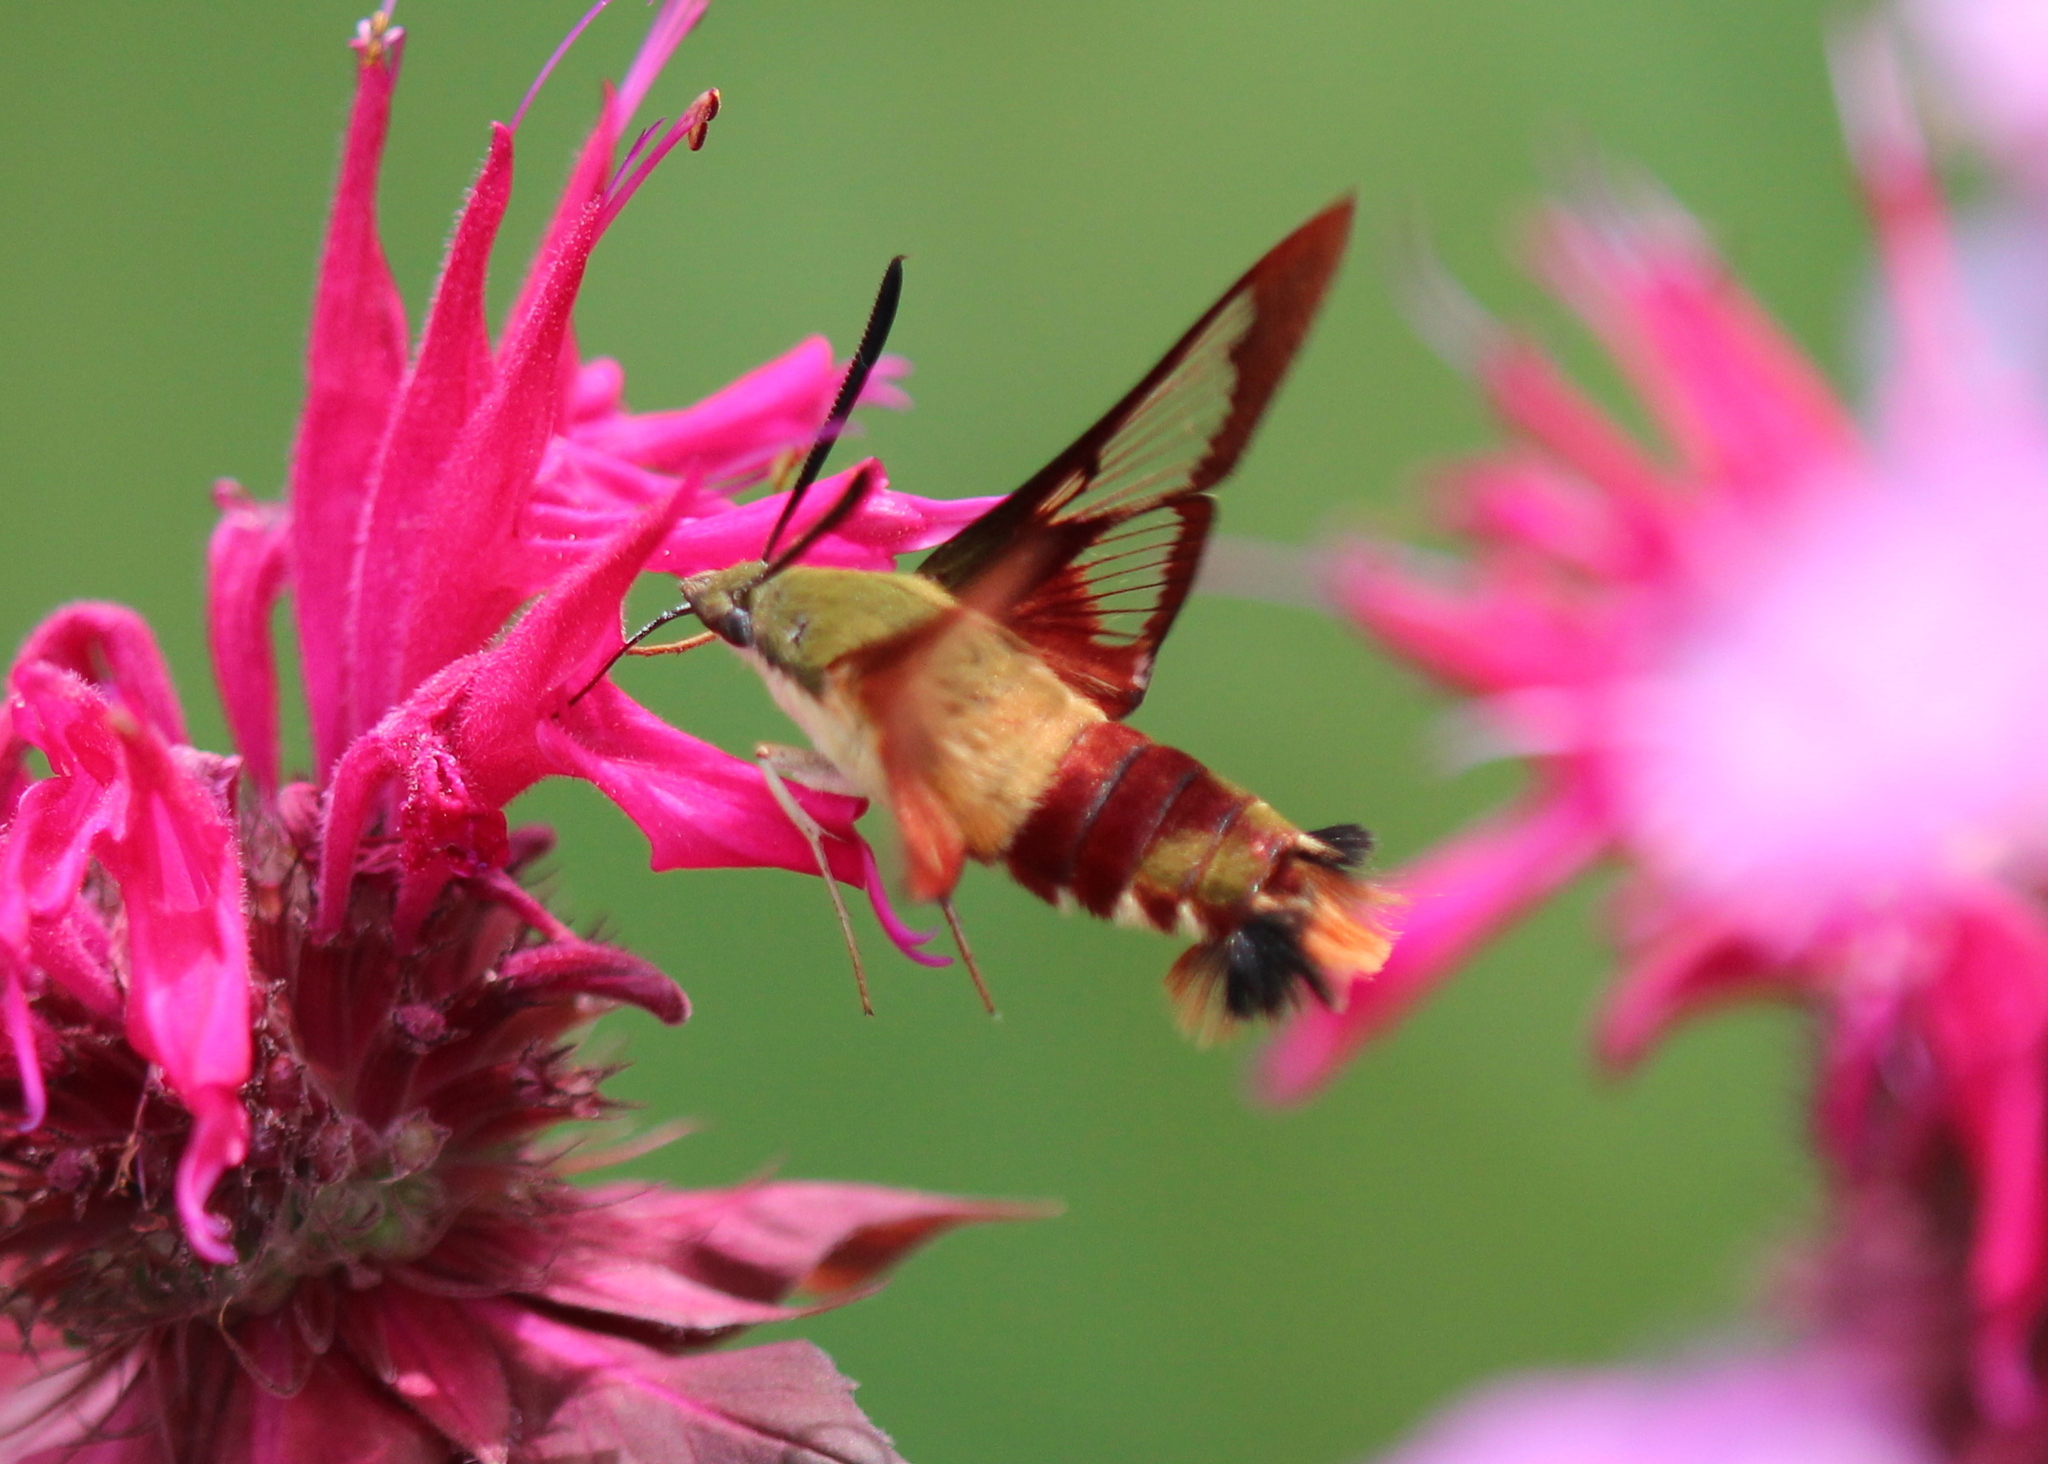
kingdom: Animalia
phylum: Arthropoda
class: Insecta
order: Lepidoptera
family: Sphingidae
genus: Hemaris
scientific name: Hemaris thysbe
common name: Common clear-wing
